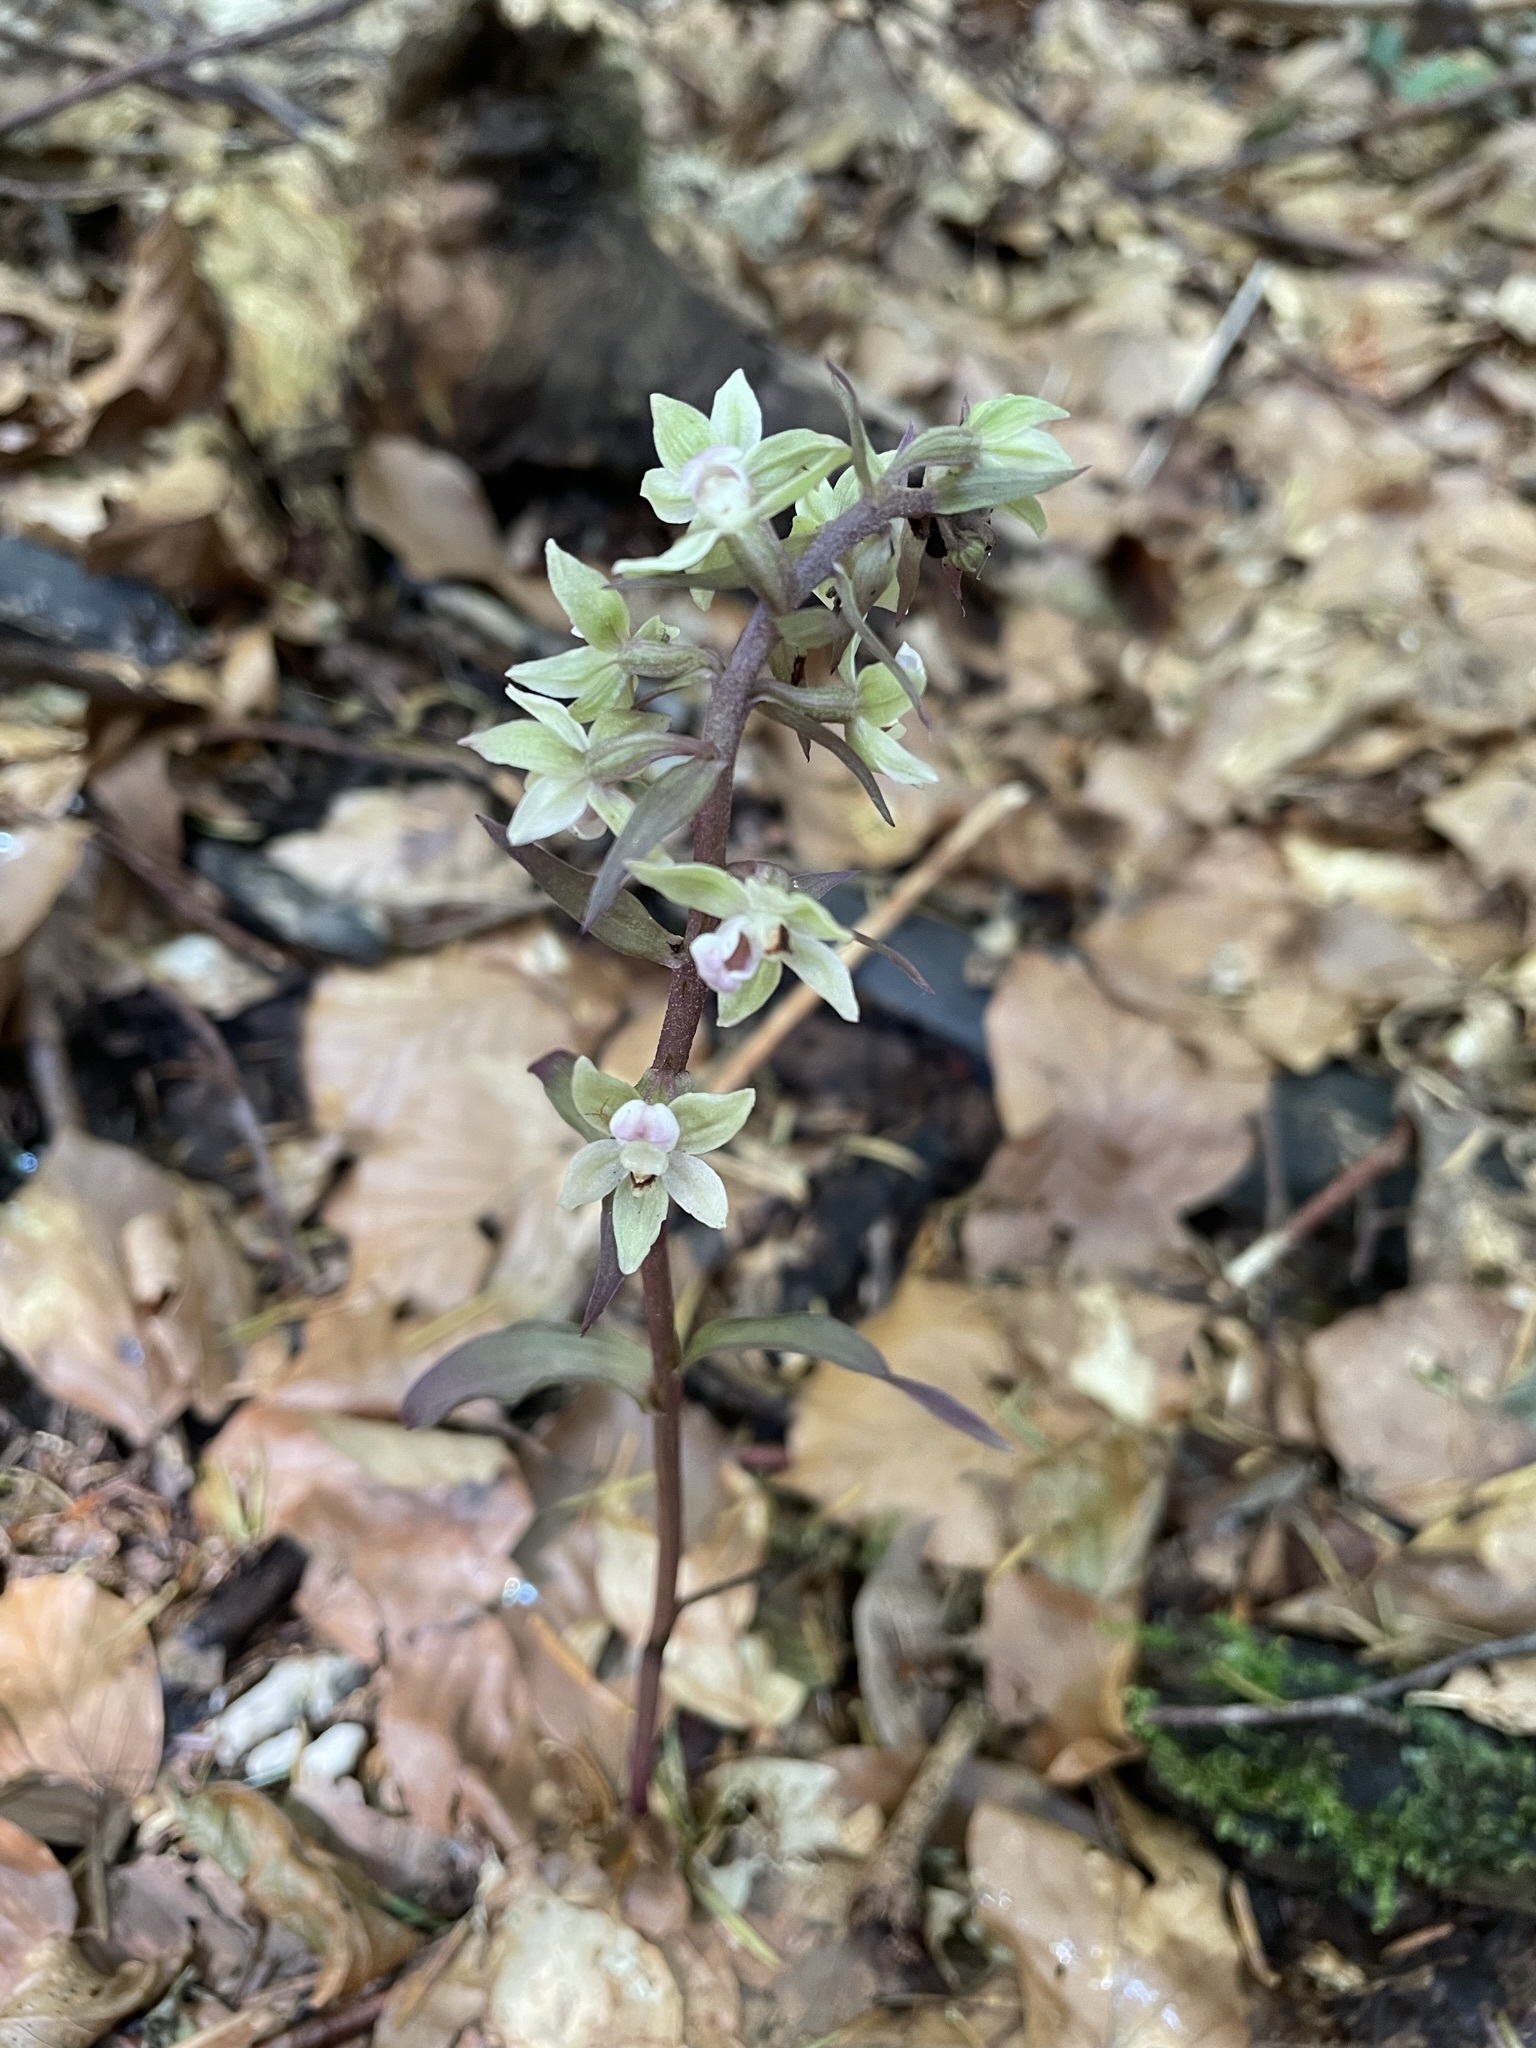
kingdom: Plantae
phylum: Tracheophyta
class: Liliopsida
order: Asparagales
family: Orchidaceae
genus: Epipactis
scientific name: Epipactis purpurata
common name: Violet helleborine
